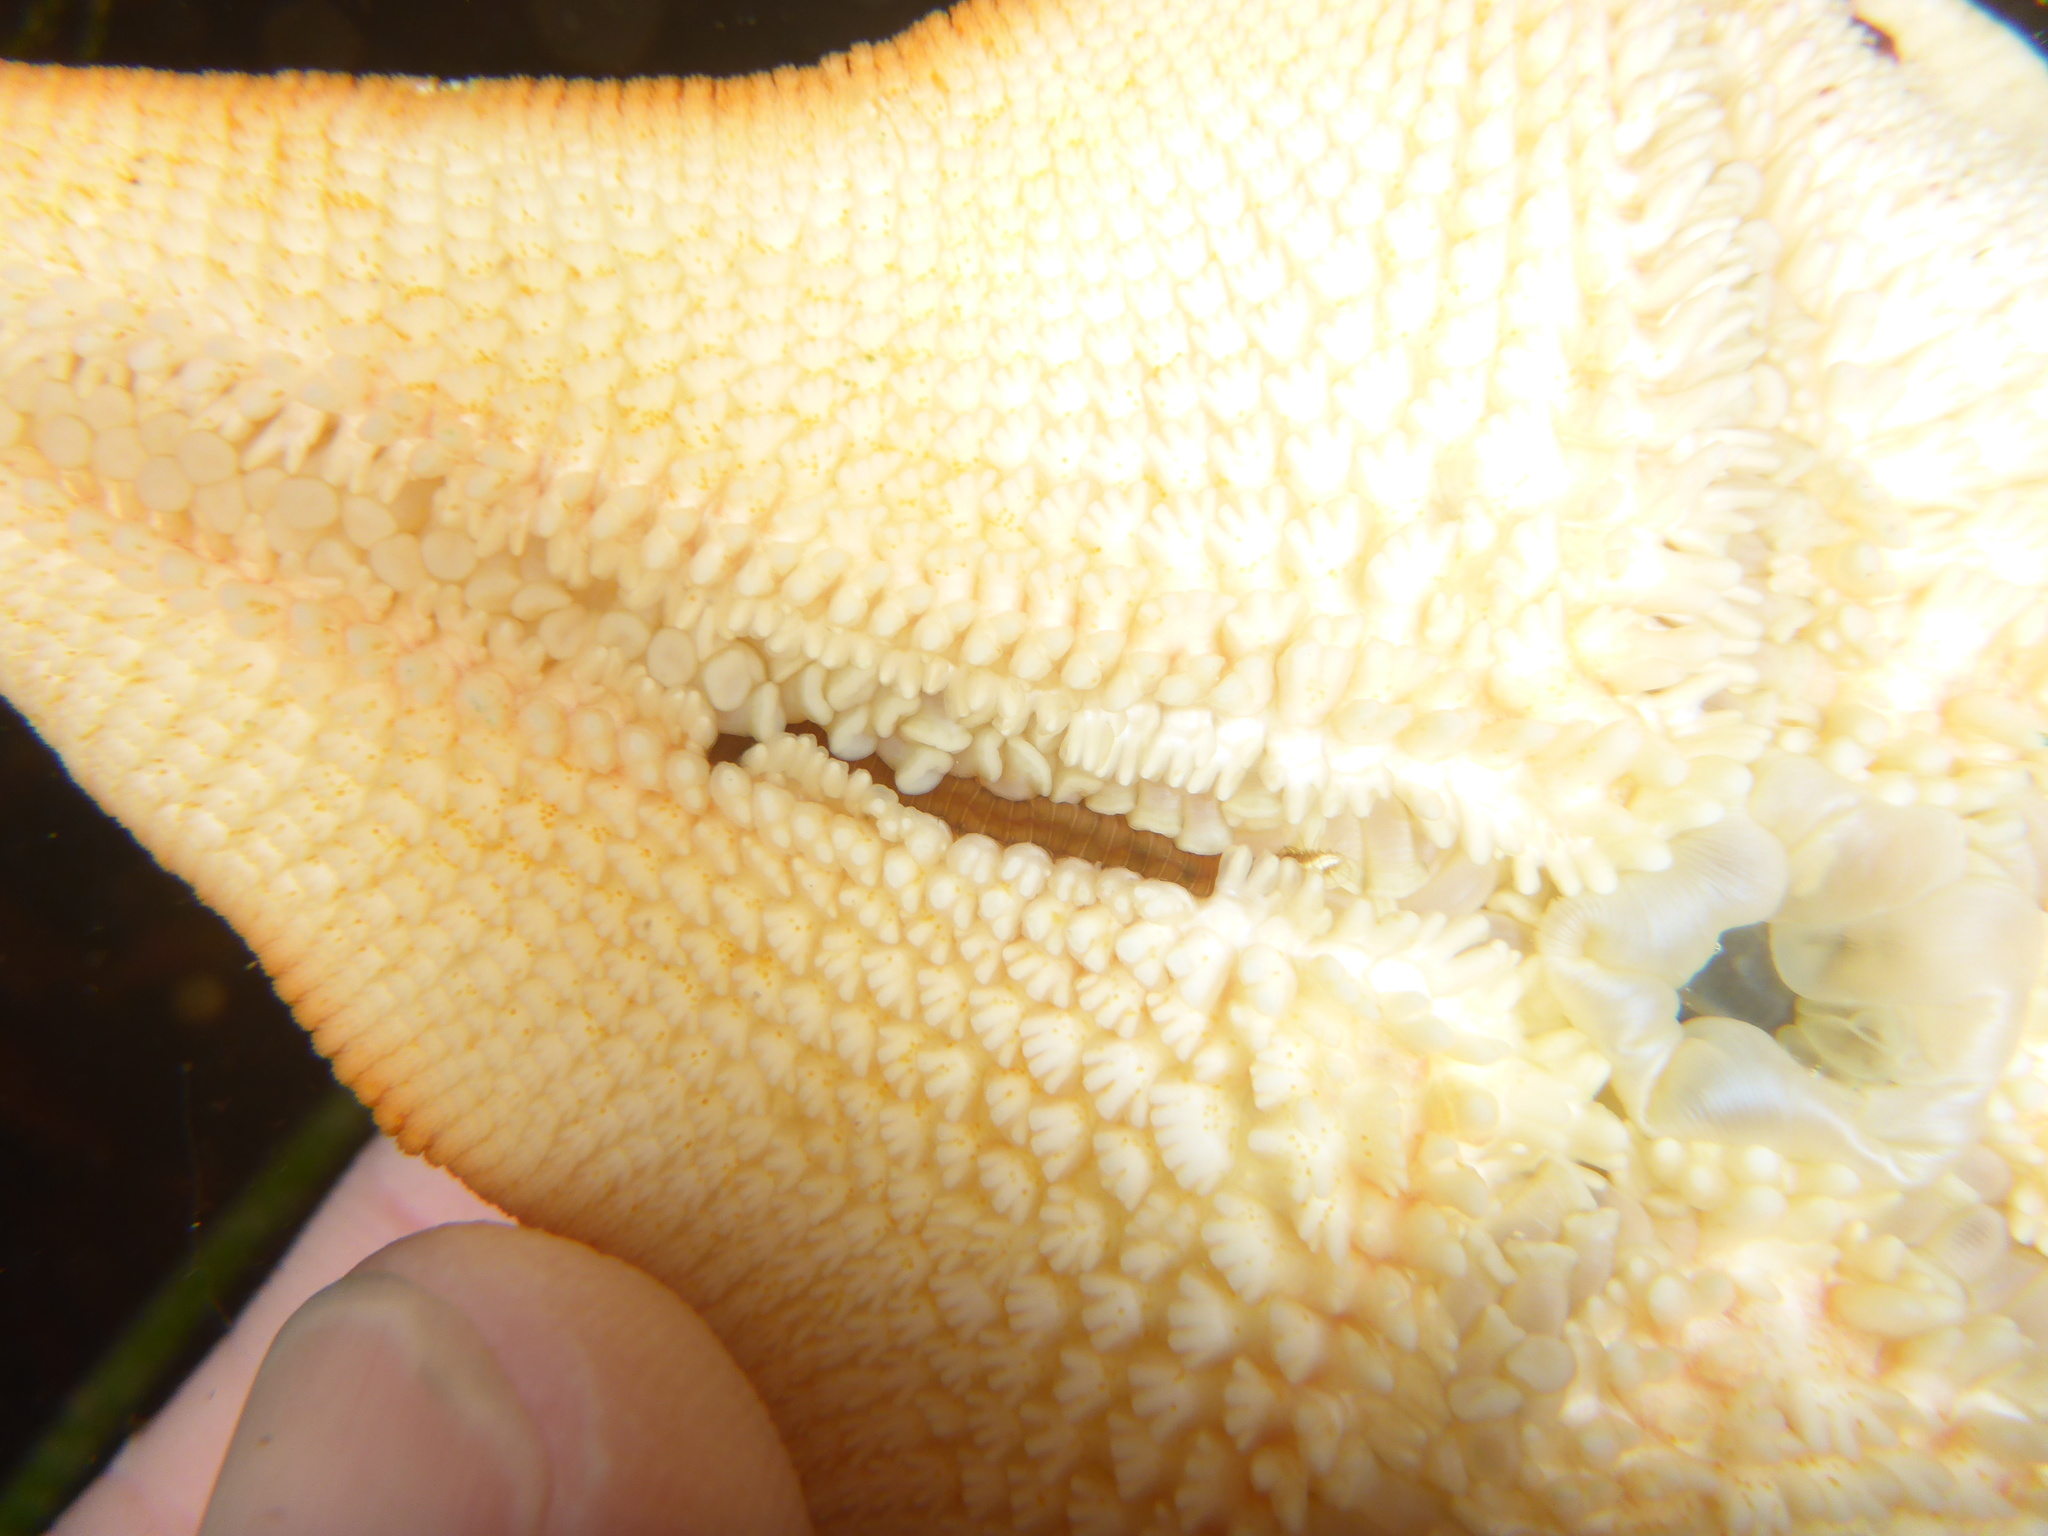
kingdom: Animalia
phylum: Annelida
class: Polychaeta
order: Phyllodocida
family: Hesionidae
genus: Oxydromus
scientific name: Oxydromus pugettensis
